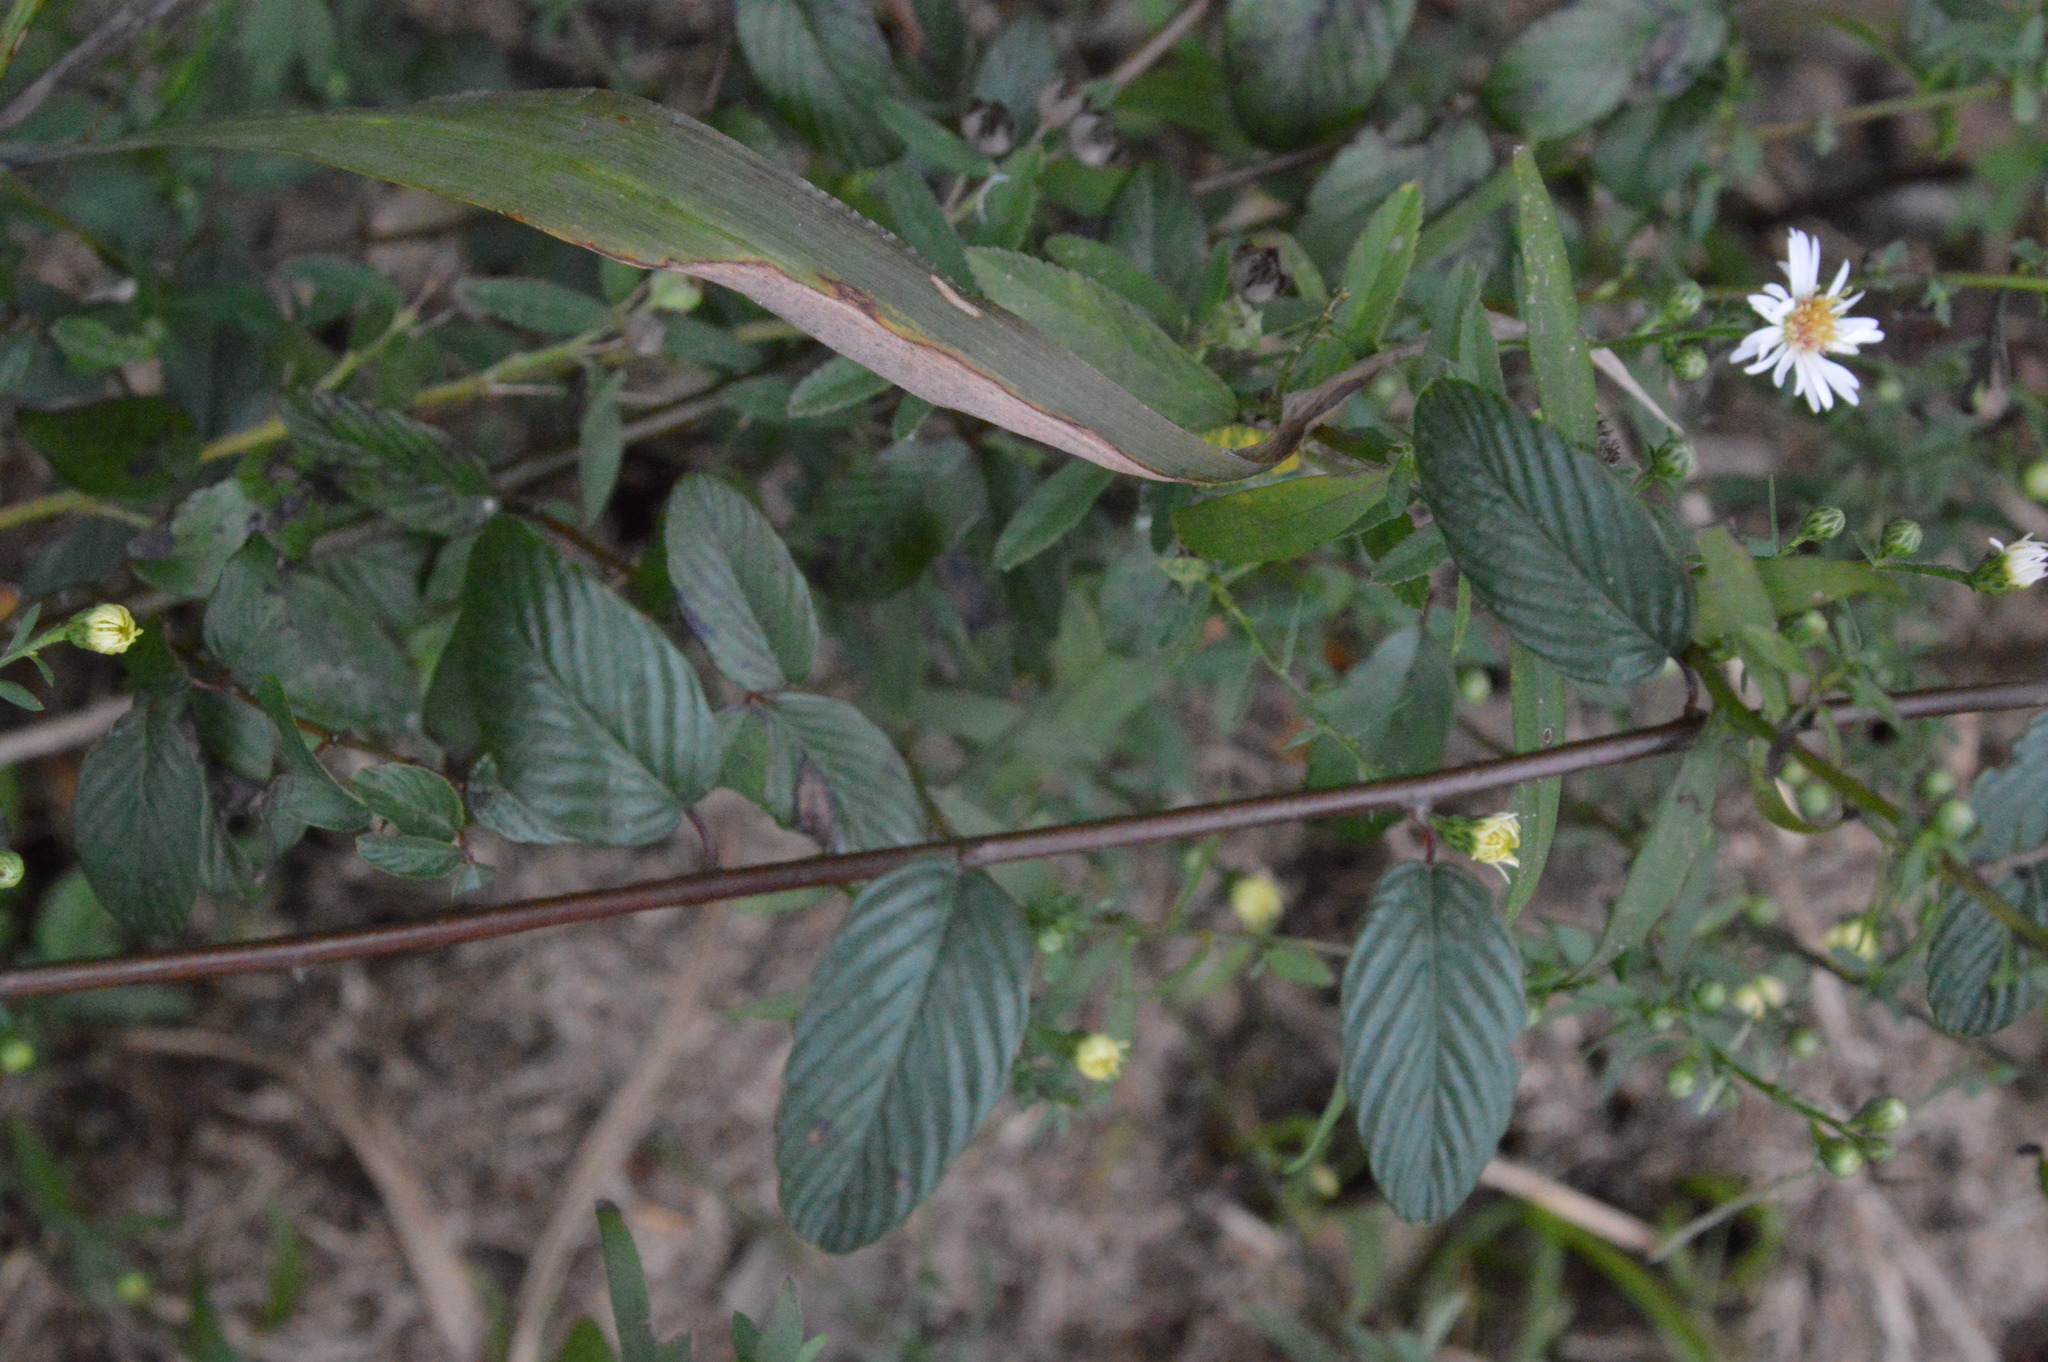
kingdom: Plantae
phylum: Tracheophyta
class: Magnoliopsida
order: Rosales
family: Rhamnaceae
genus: Berchemia
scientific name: Berchemia scandens
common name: Supplejack
